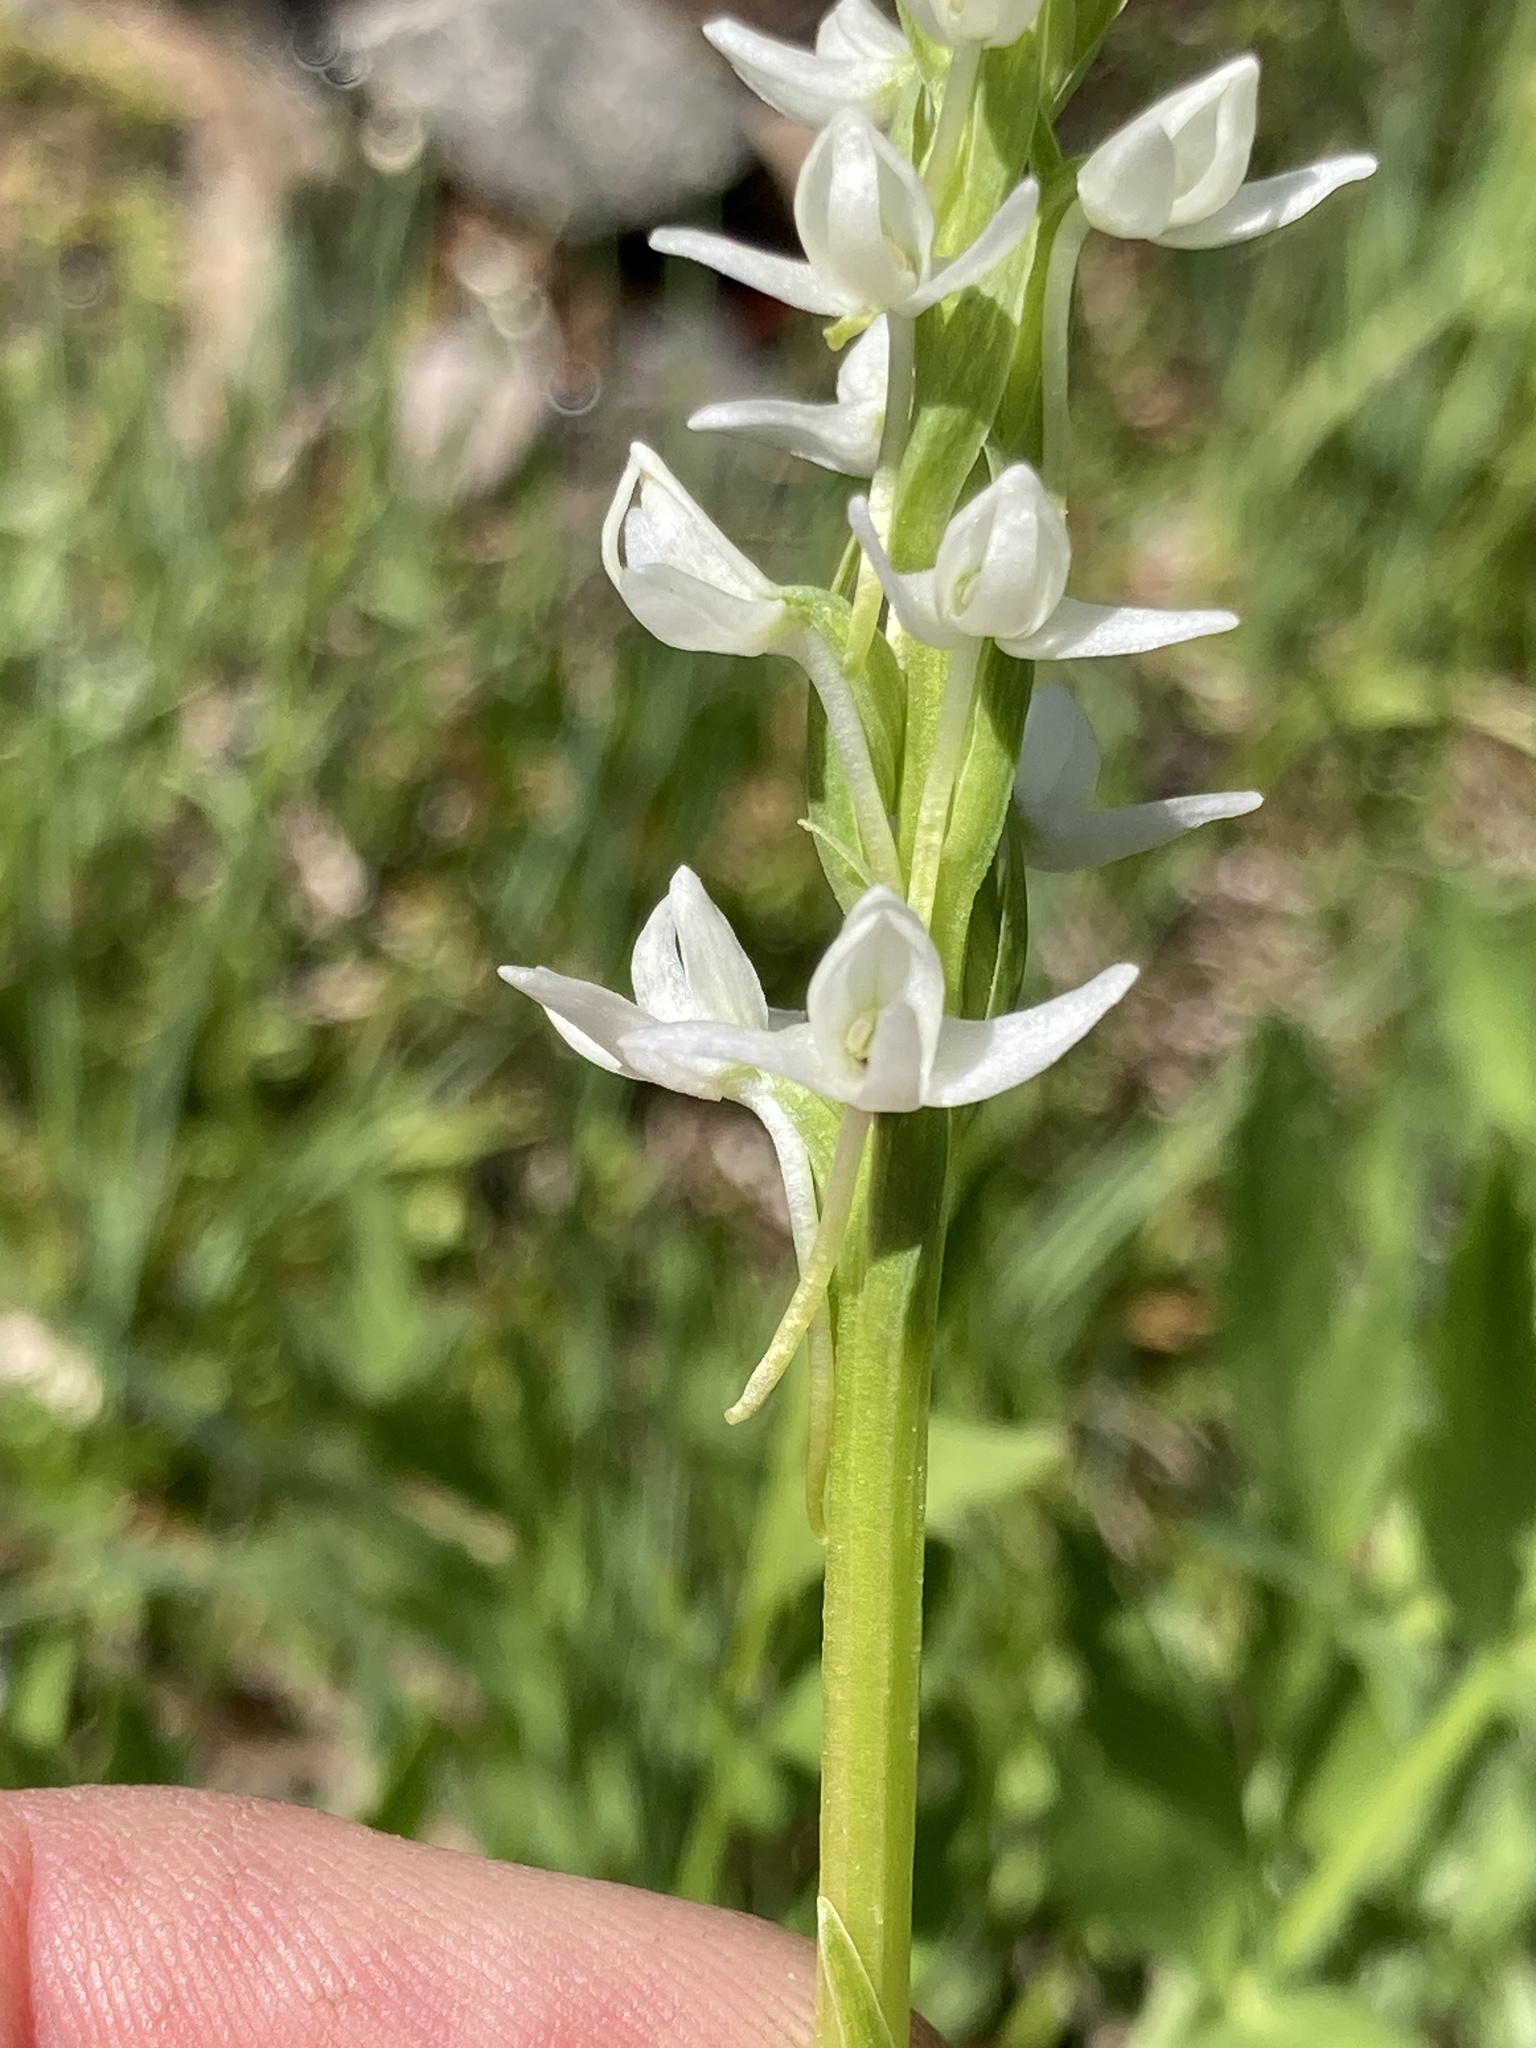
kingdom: Plantae
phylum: Tracheophyta
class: Liliopsida
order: Asparagales
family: Orchidaceae
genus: Platanthera
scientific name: Platanthera dilatata
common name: Bog candles
